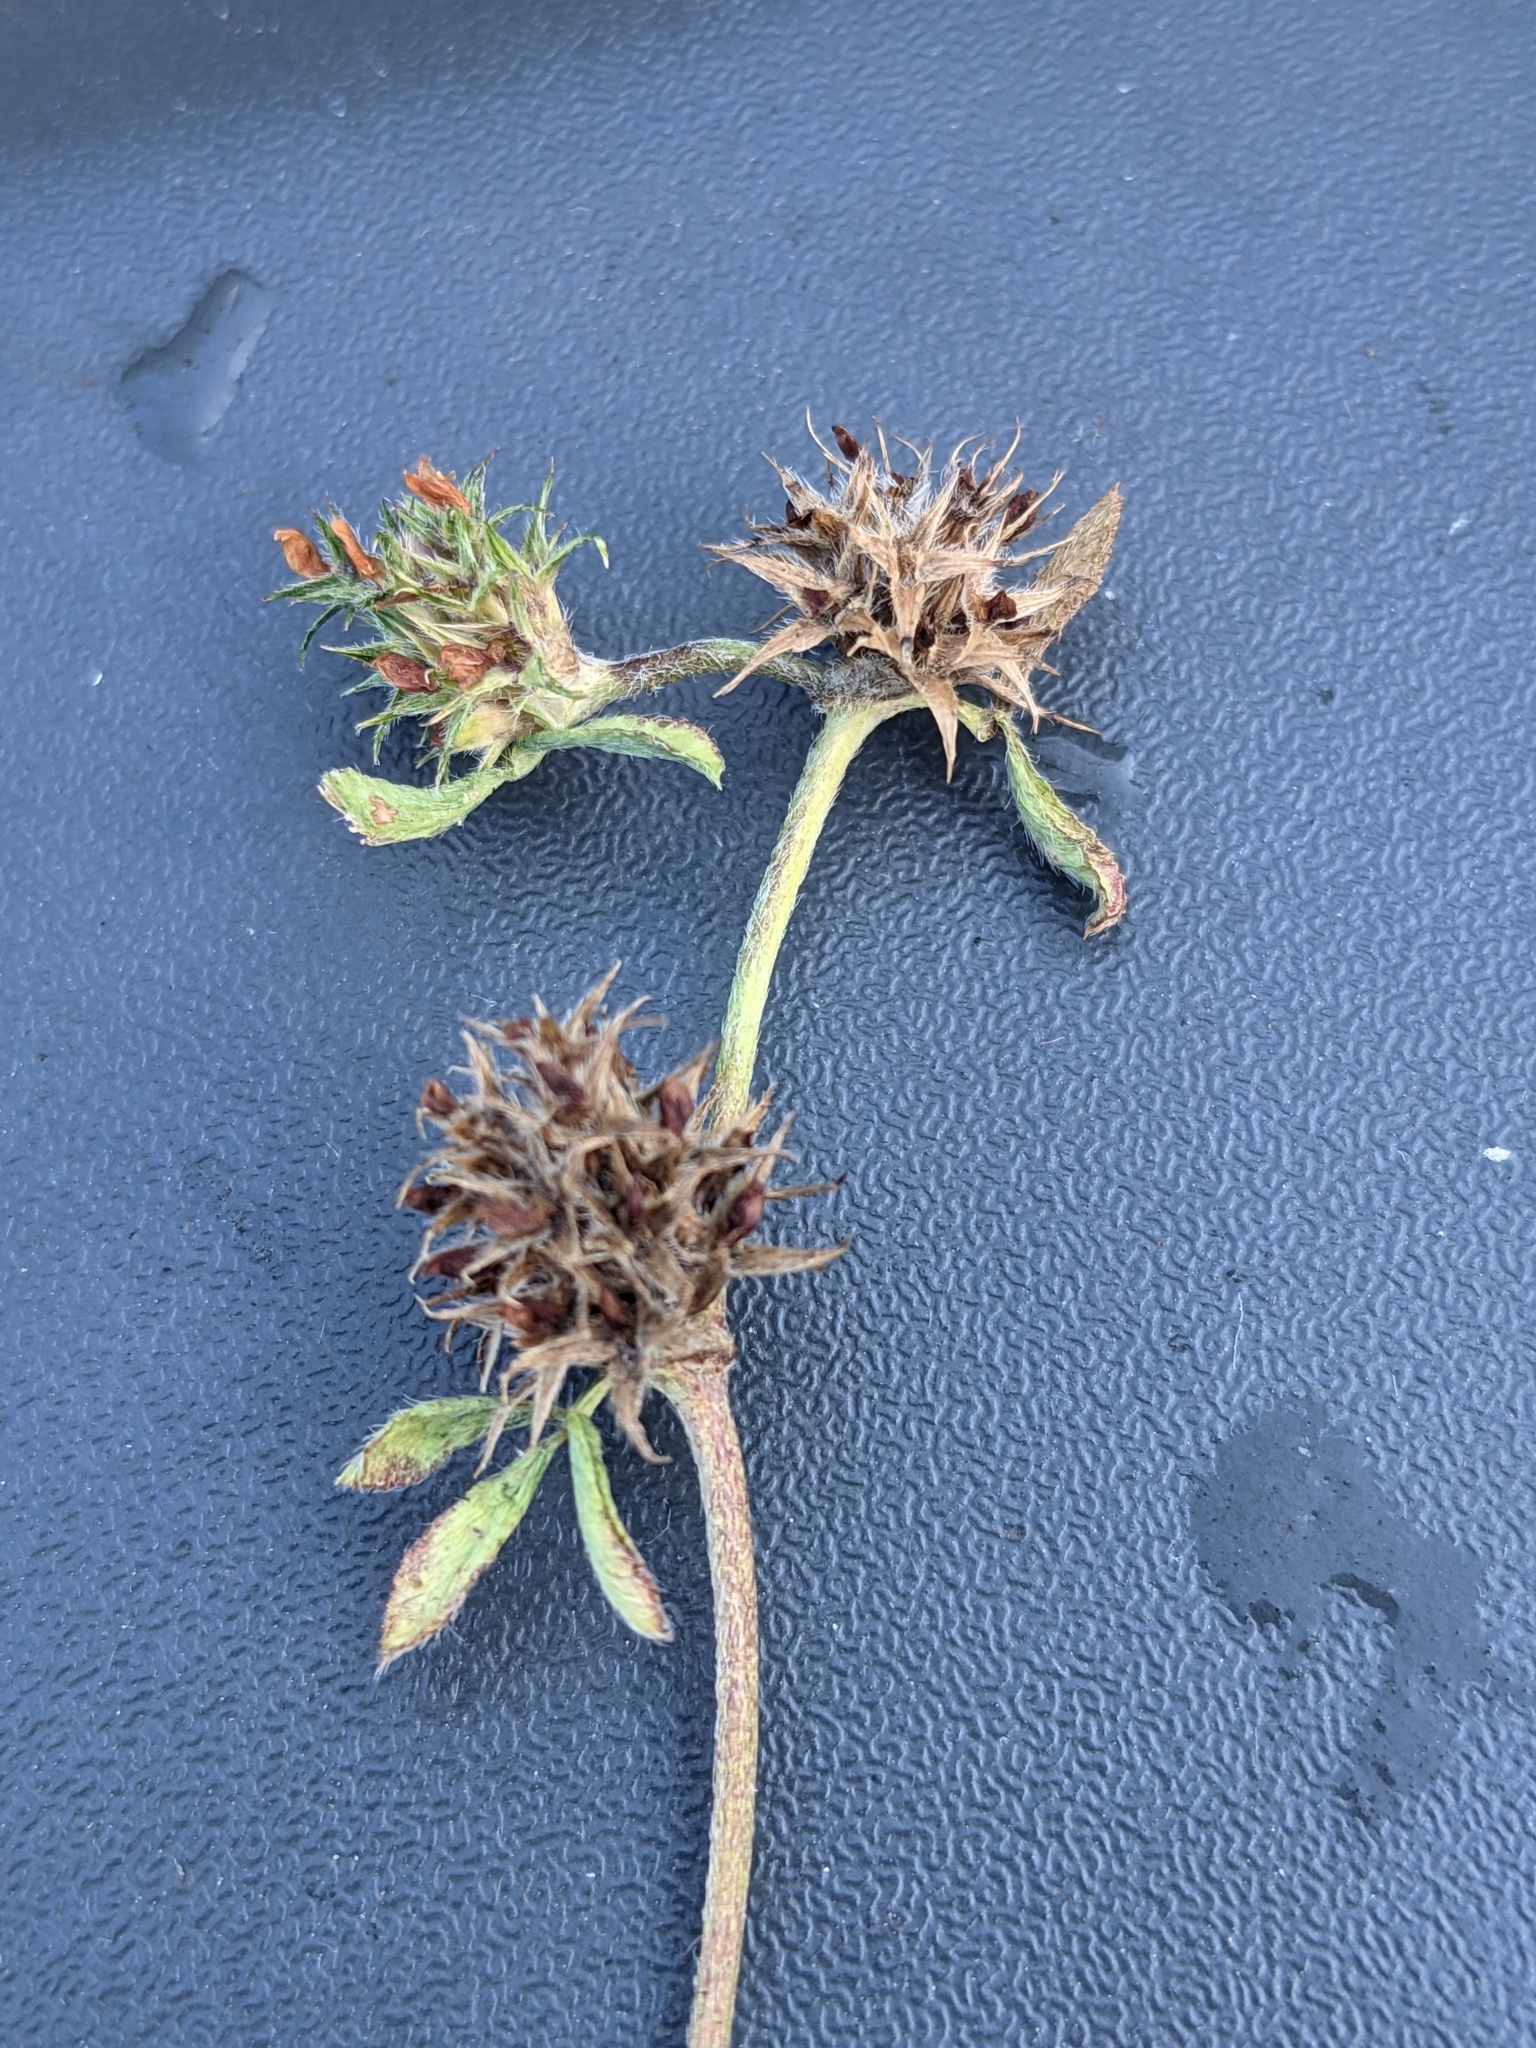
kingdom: Plantae
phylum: Tracheophyta
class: Magnoliopsida
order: Fabales
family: Fabaceae
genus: Trifolium
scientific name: Trifolium scabrum
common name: Rough clover
